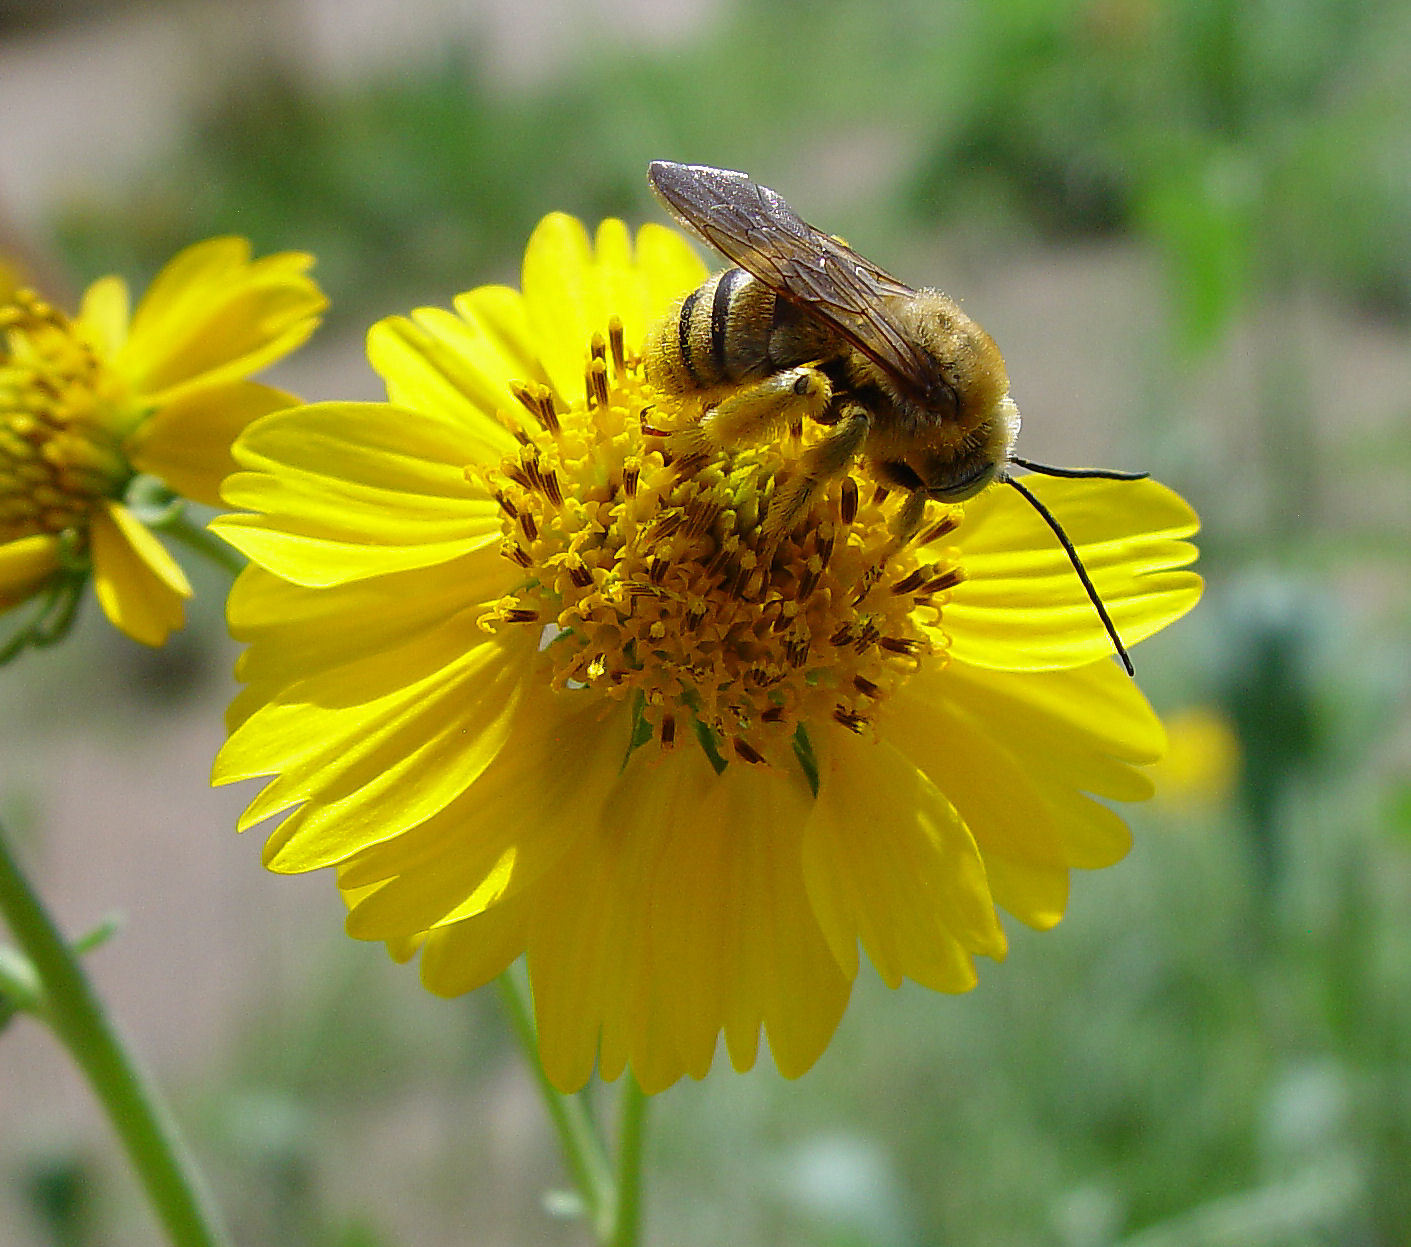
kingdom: Animalia
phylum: Arthropoda
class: Insecta
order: Hymenoptera
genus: Epimelissodes
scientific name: Epimelissodes
